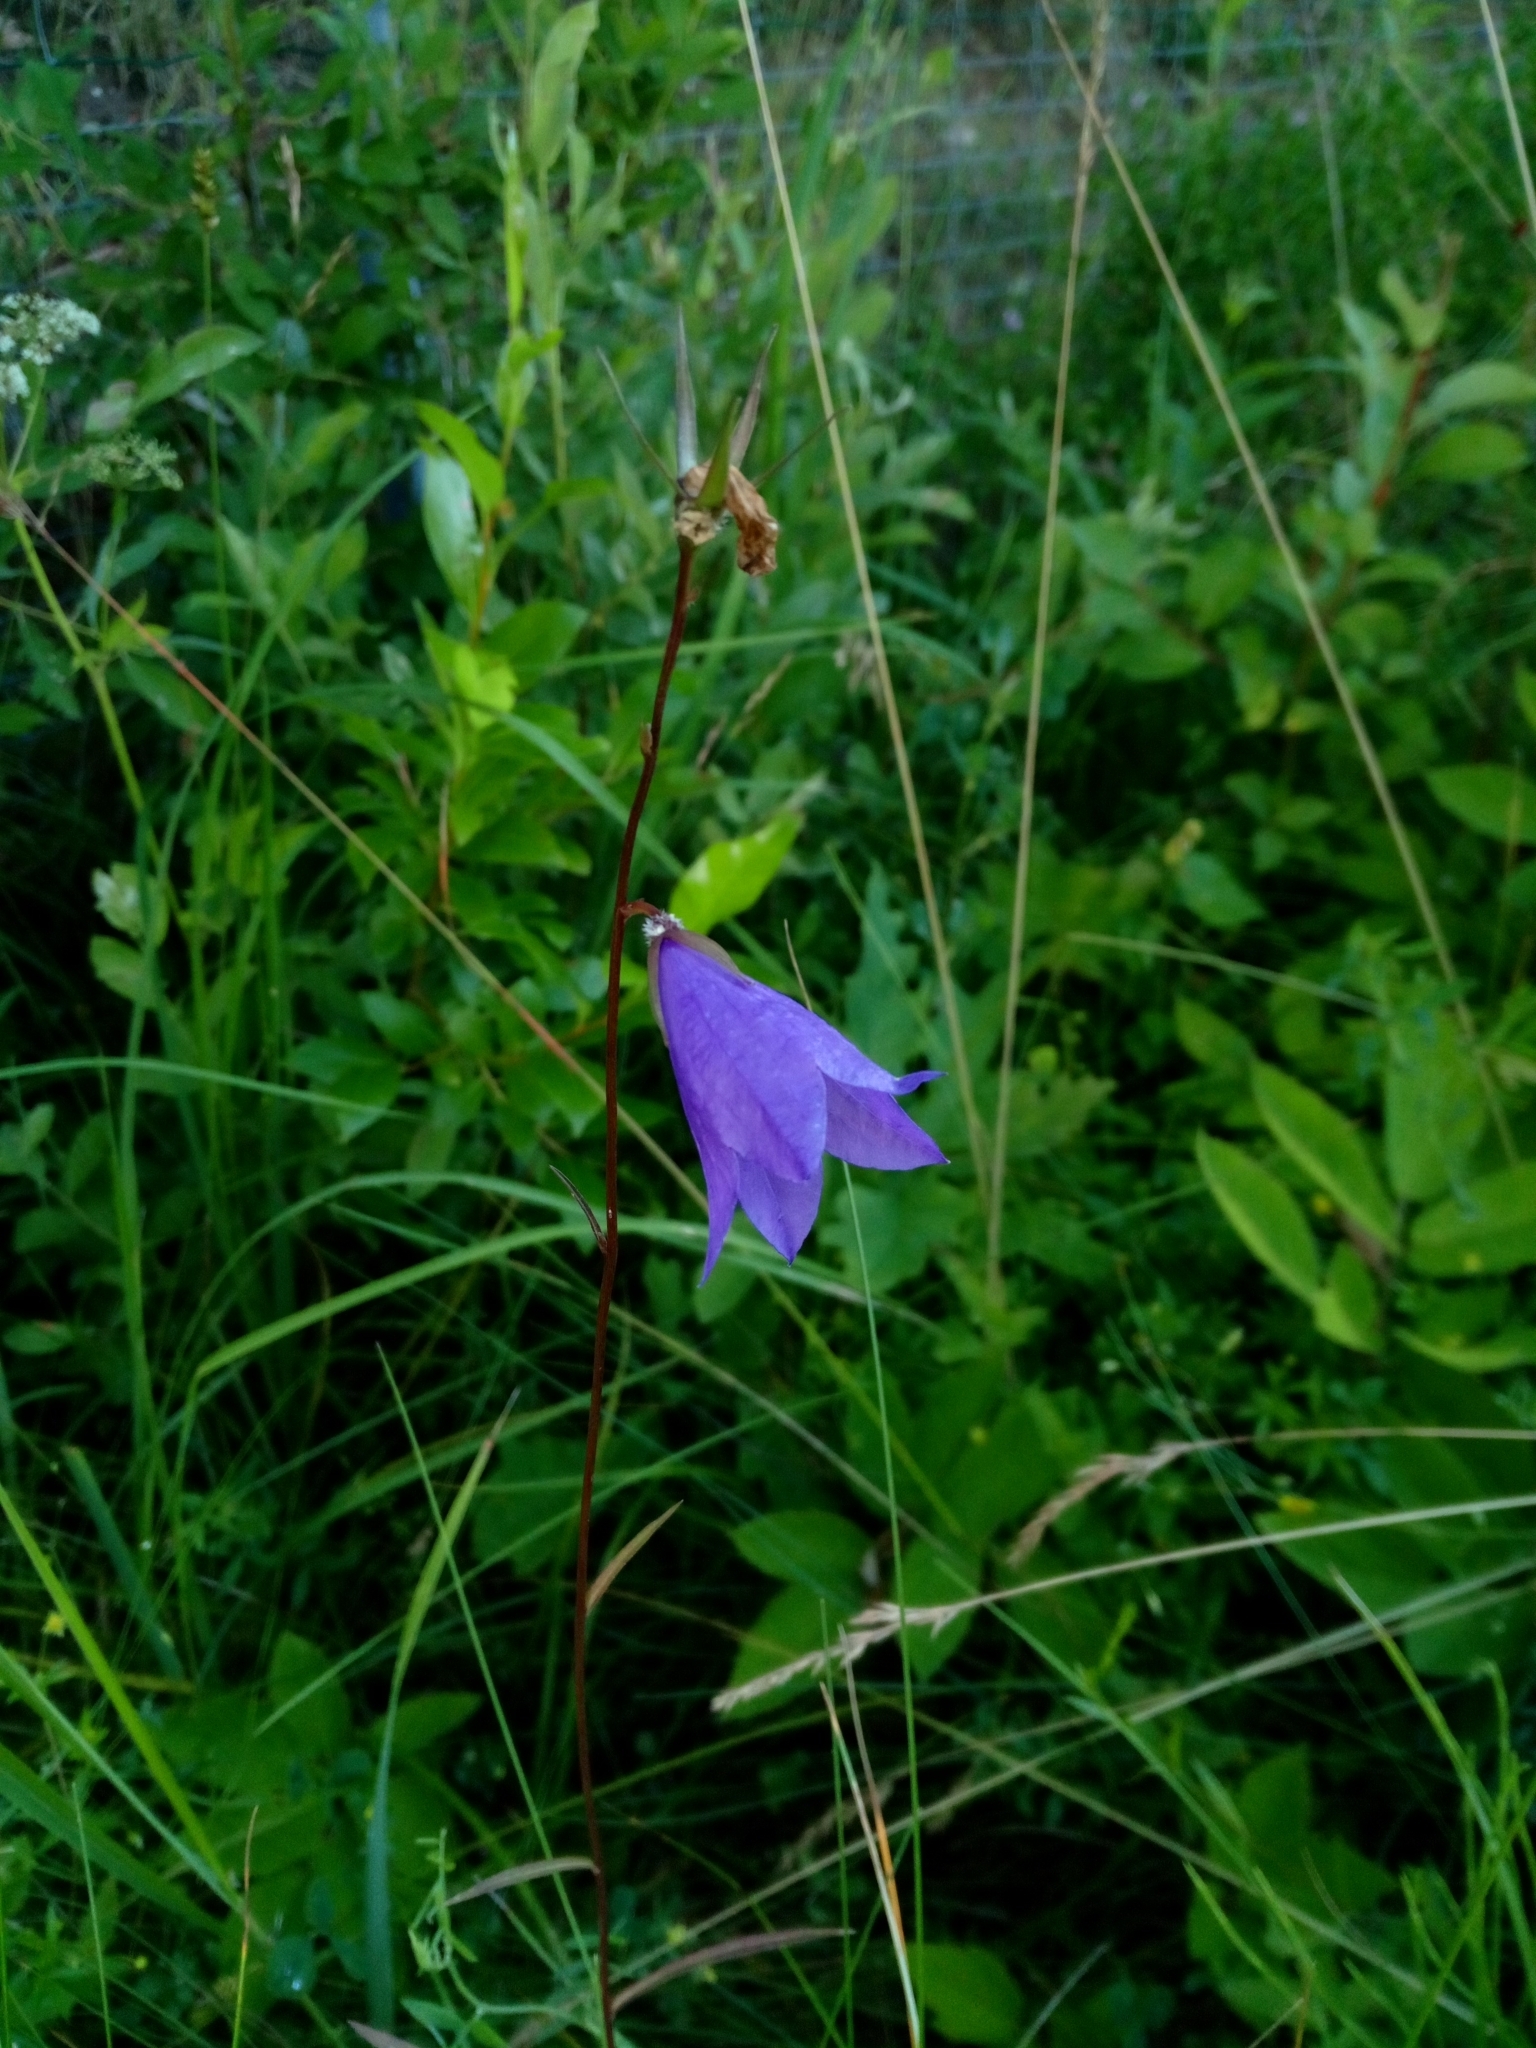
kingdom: Plantae
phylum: Tracheophyta
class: Magnoliopsida
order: Asterales
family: Campanulaceae
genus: Campanula
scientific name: Campanula persicifolia
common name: Peach-leaved bellflower
